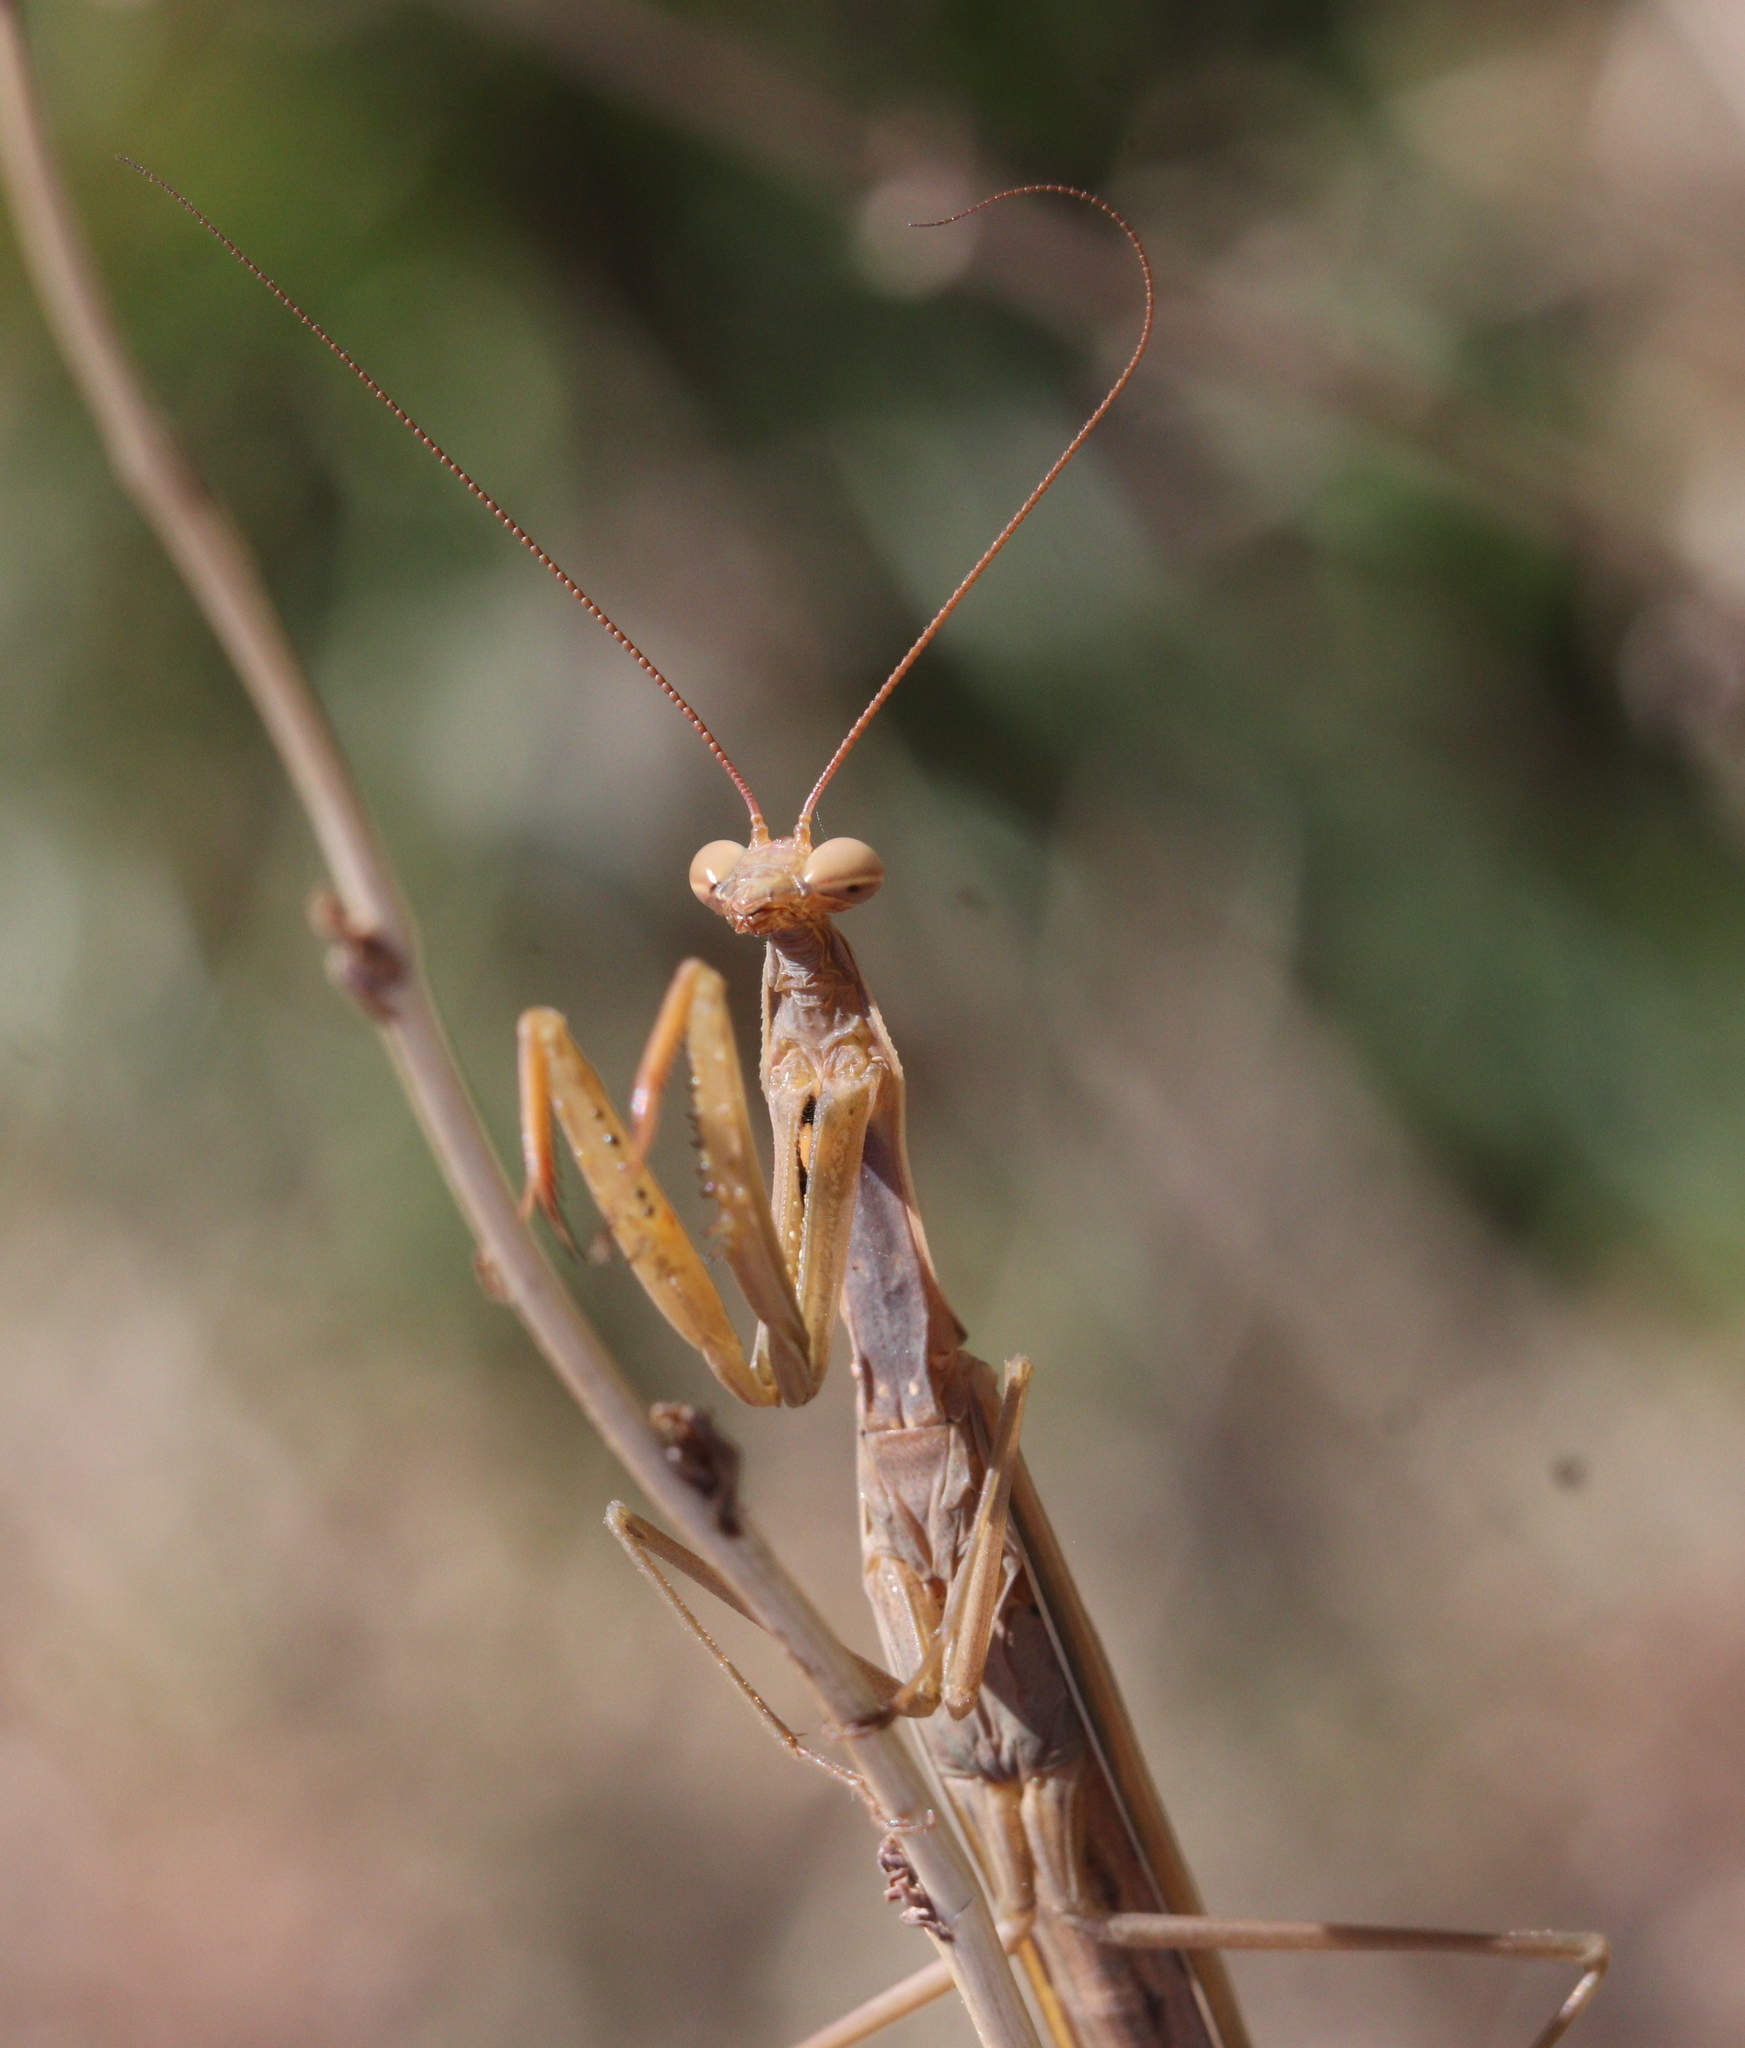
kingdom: Animalia
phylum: Arthropoda
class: Insecta
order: Mantodea
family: Mantidae
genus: Mantis
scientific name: Mantis religiosa
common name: Praying mantis
